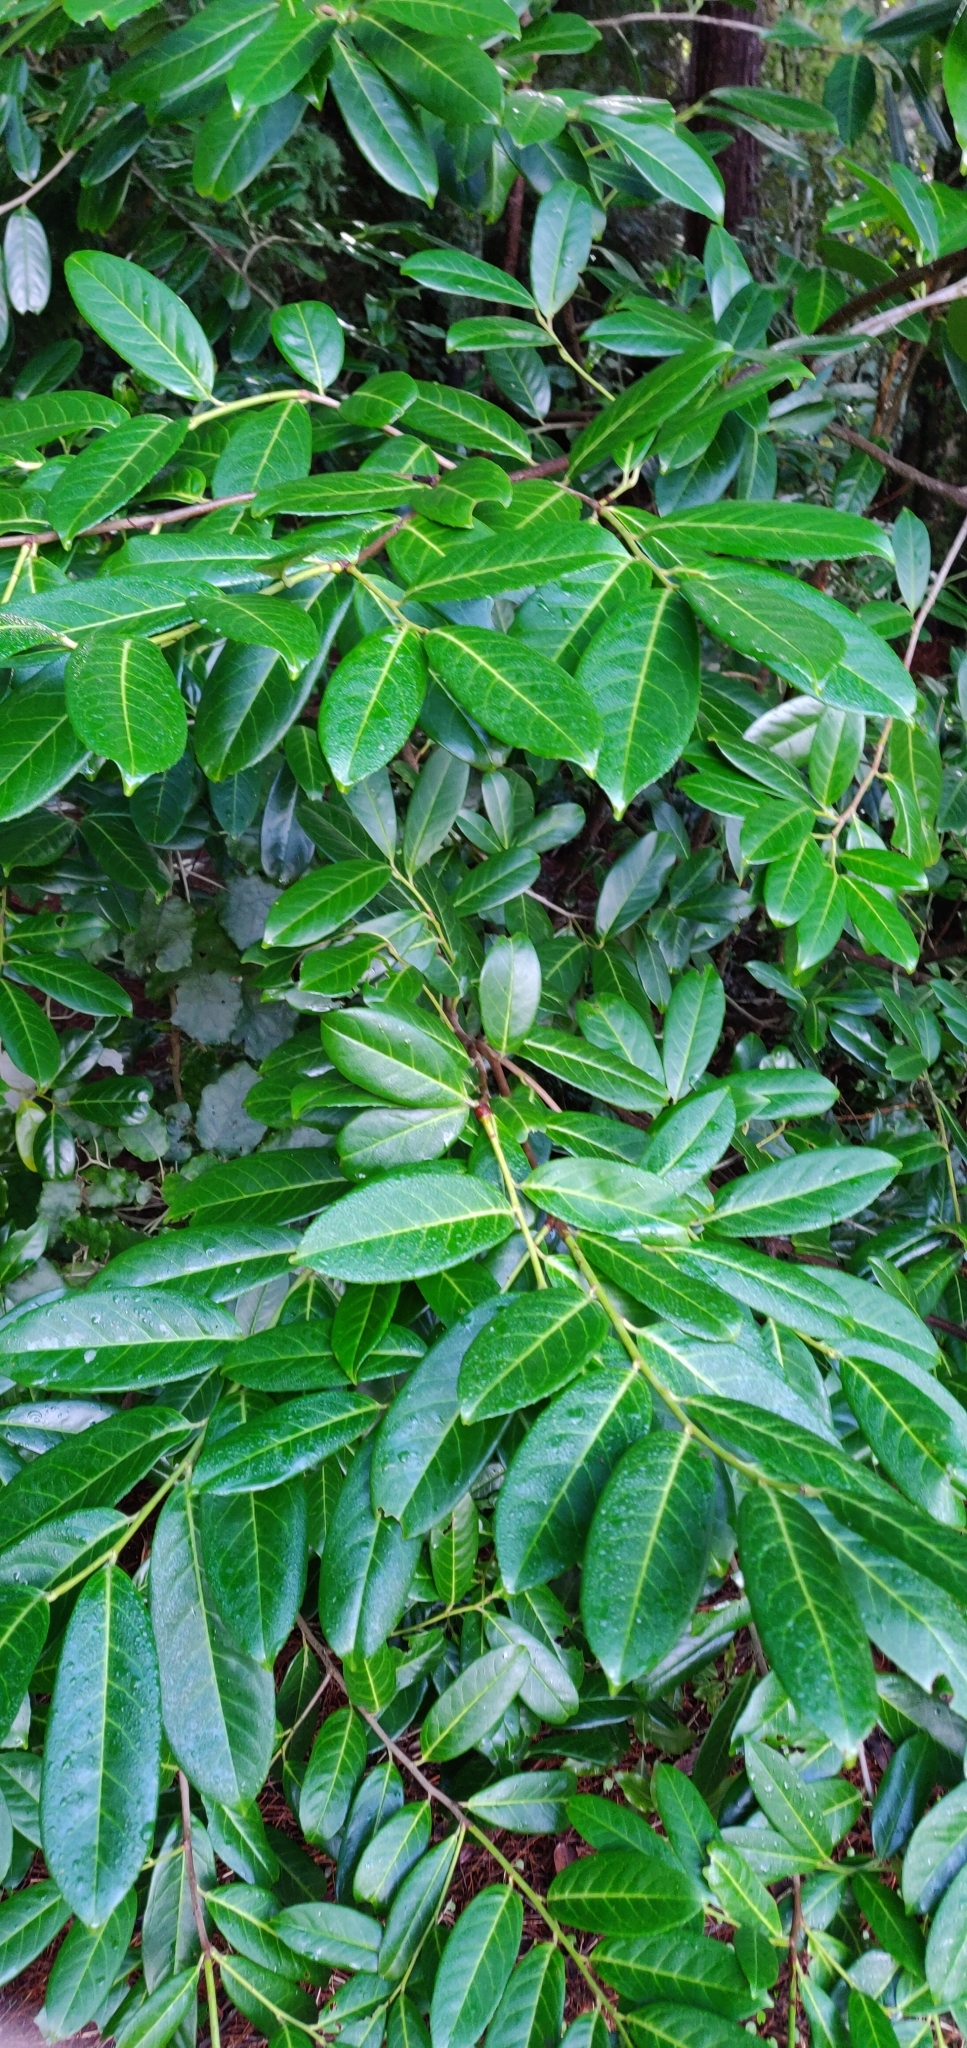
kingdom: Plantae
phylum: Tracheophyta
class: Magnoliopsida
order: Rosales
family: Rosaceae
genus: Prunus
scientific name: Prunus laurocerasus
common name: Cherry laurel
